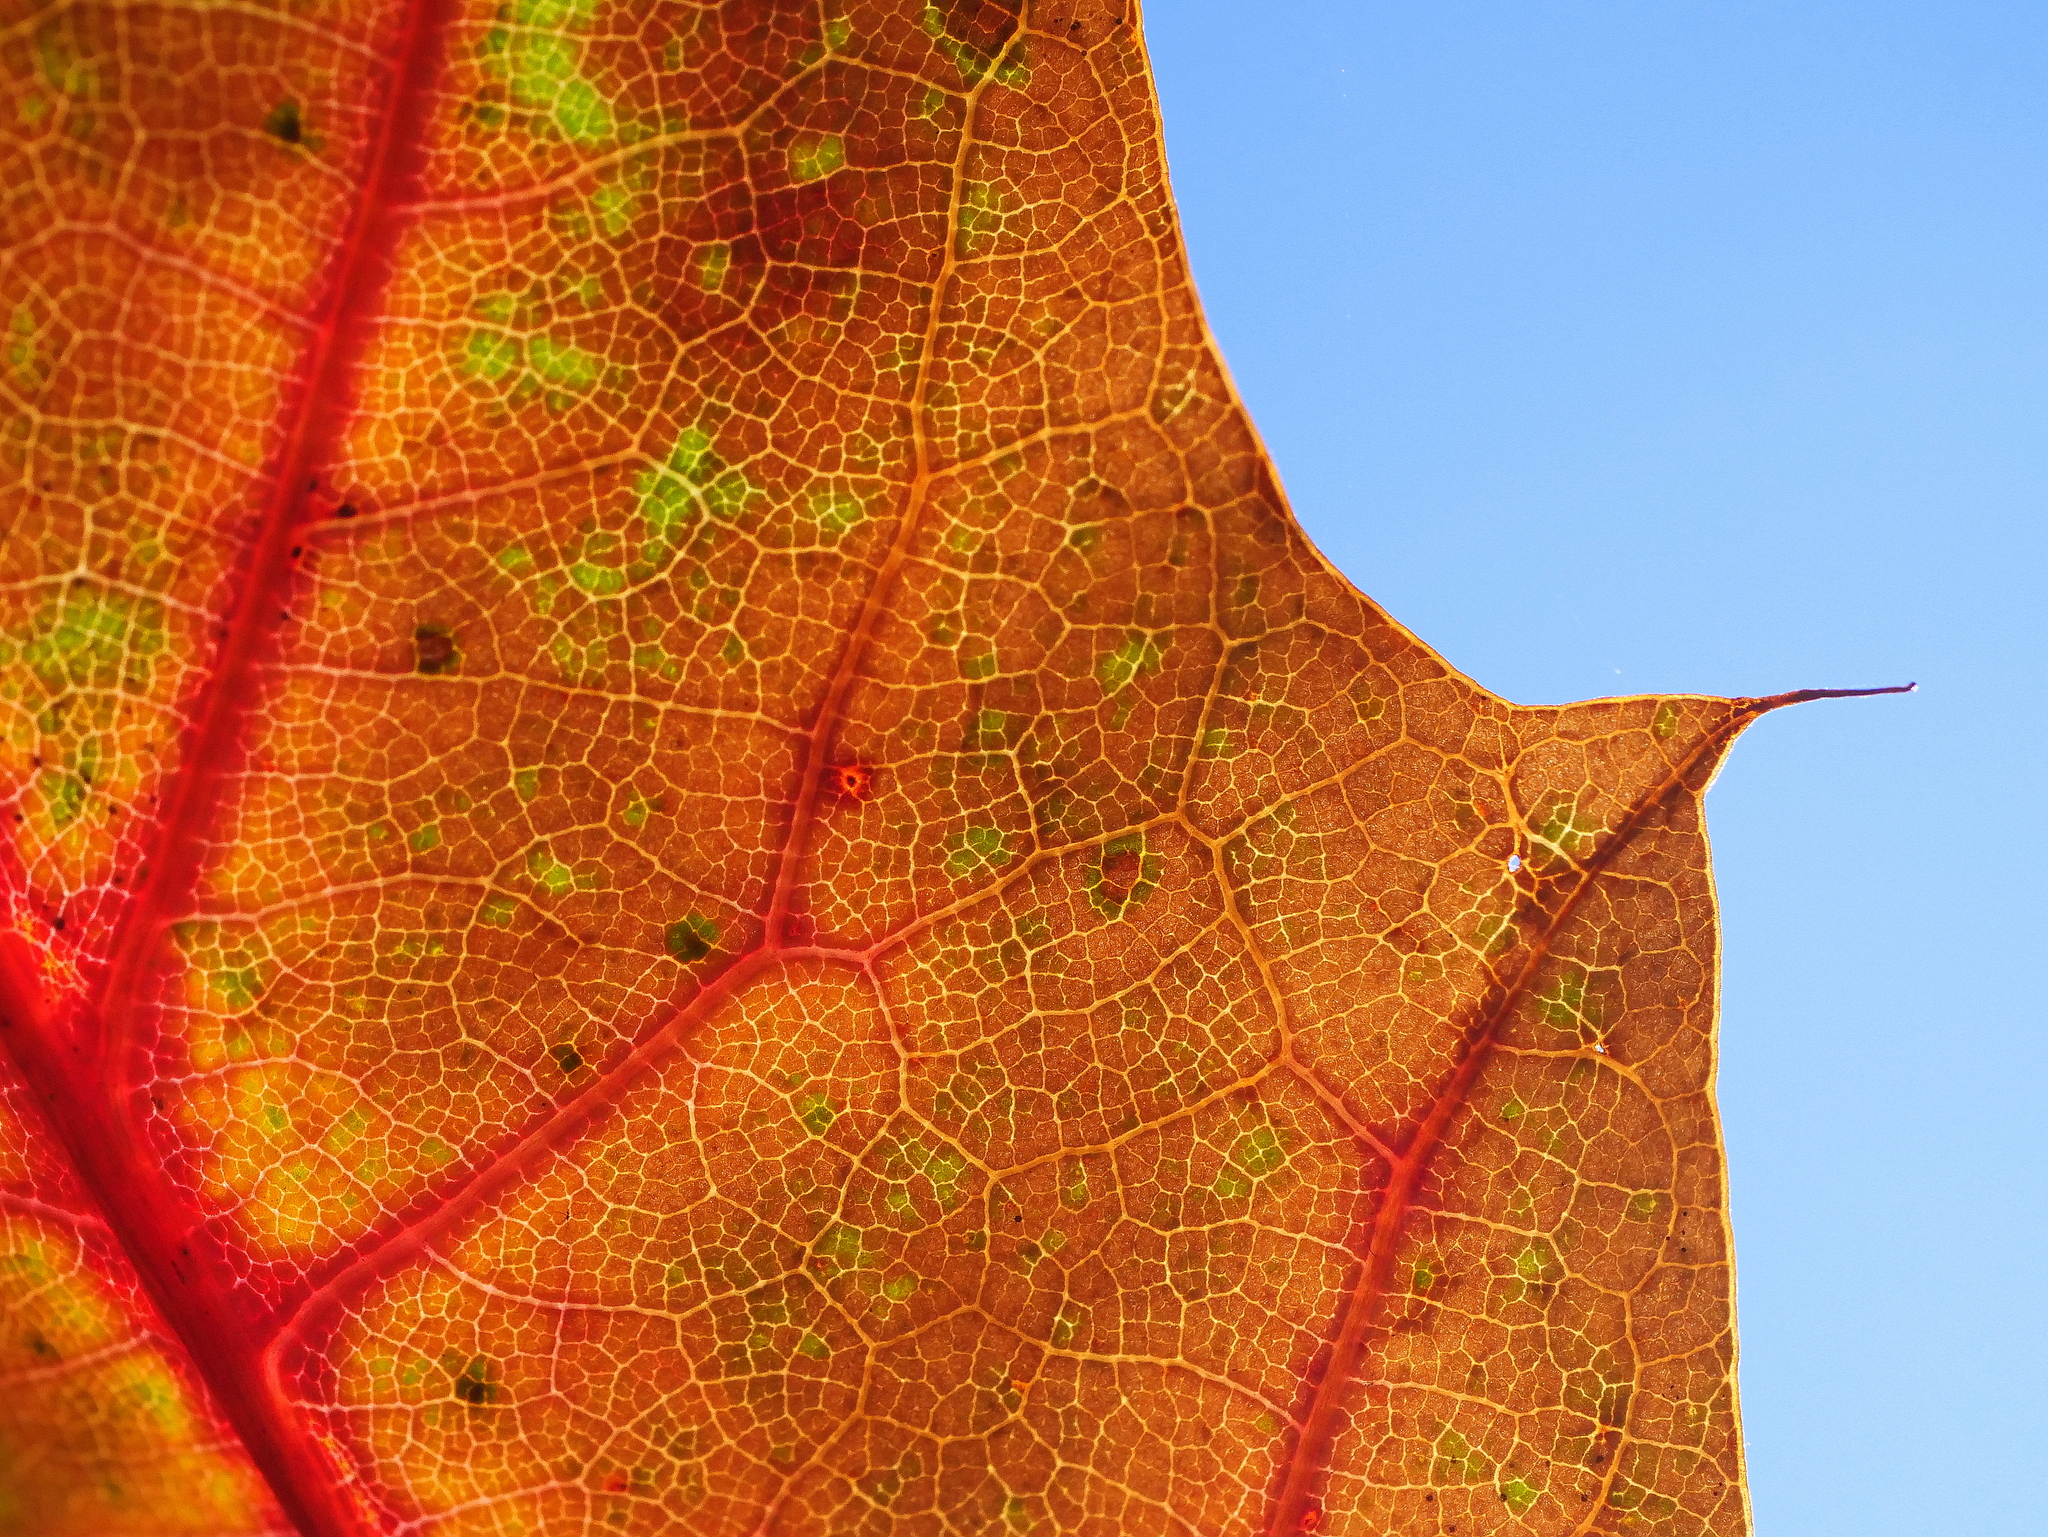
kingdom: Plantae
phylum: Tracheophyta
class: Magnoliopsida
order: Fagales
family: Fagaceae
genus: Quercus
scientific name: Quercus rubra
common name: Red oak
